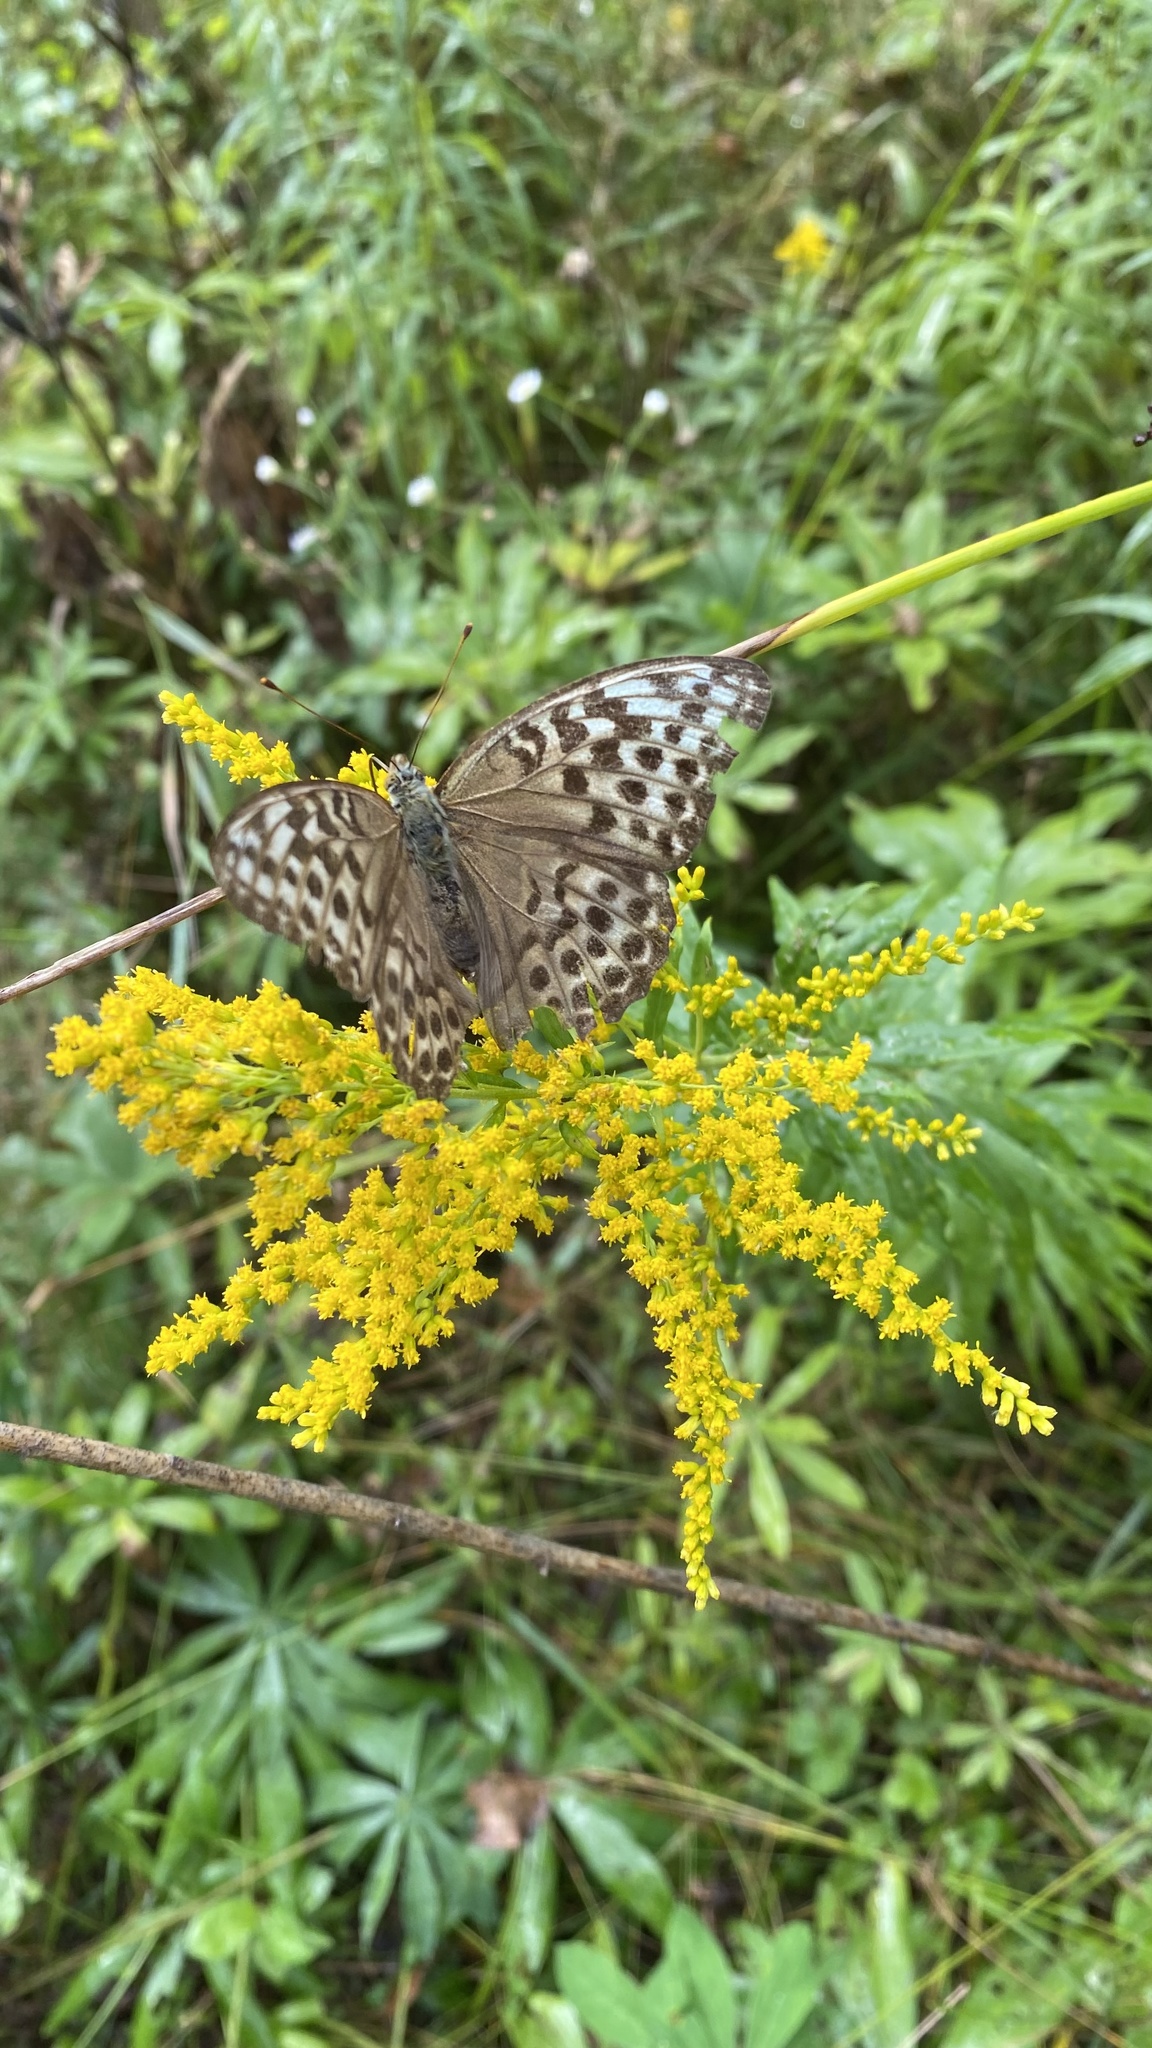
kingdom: Animalia
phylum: Arthropoda
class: Insecta
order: Lepidoptera
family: Nymphalidae
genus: Argynnis
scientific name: Argynnis paphia
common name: Silver-washed fritillary
